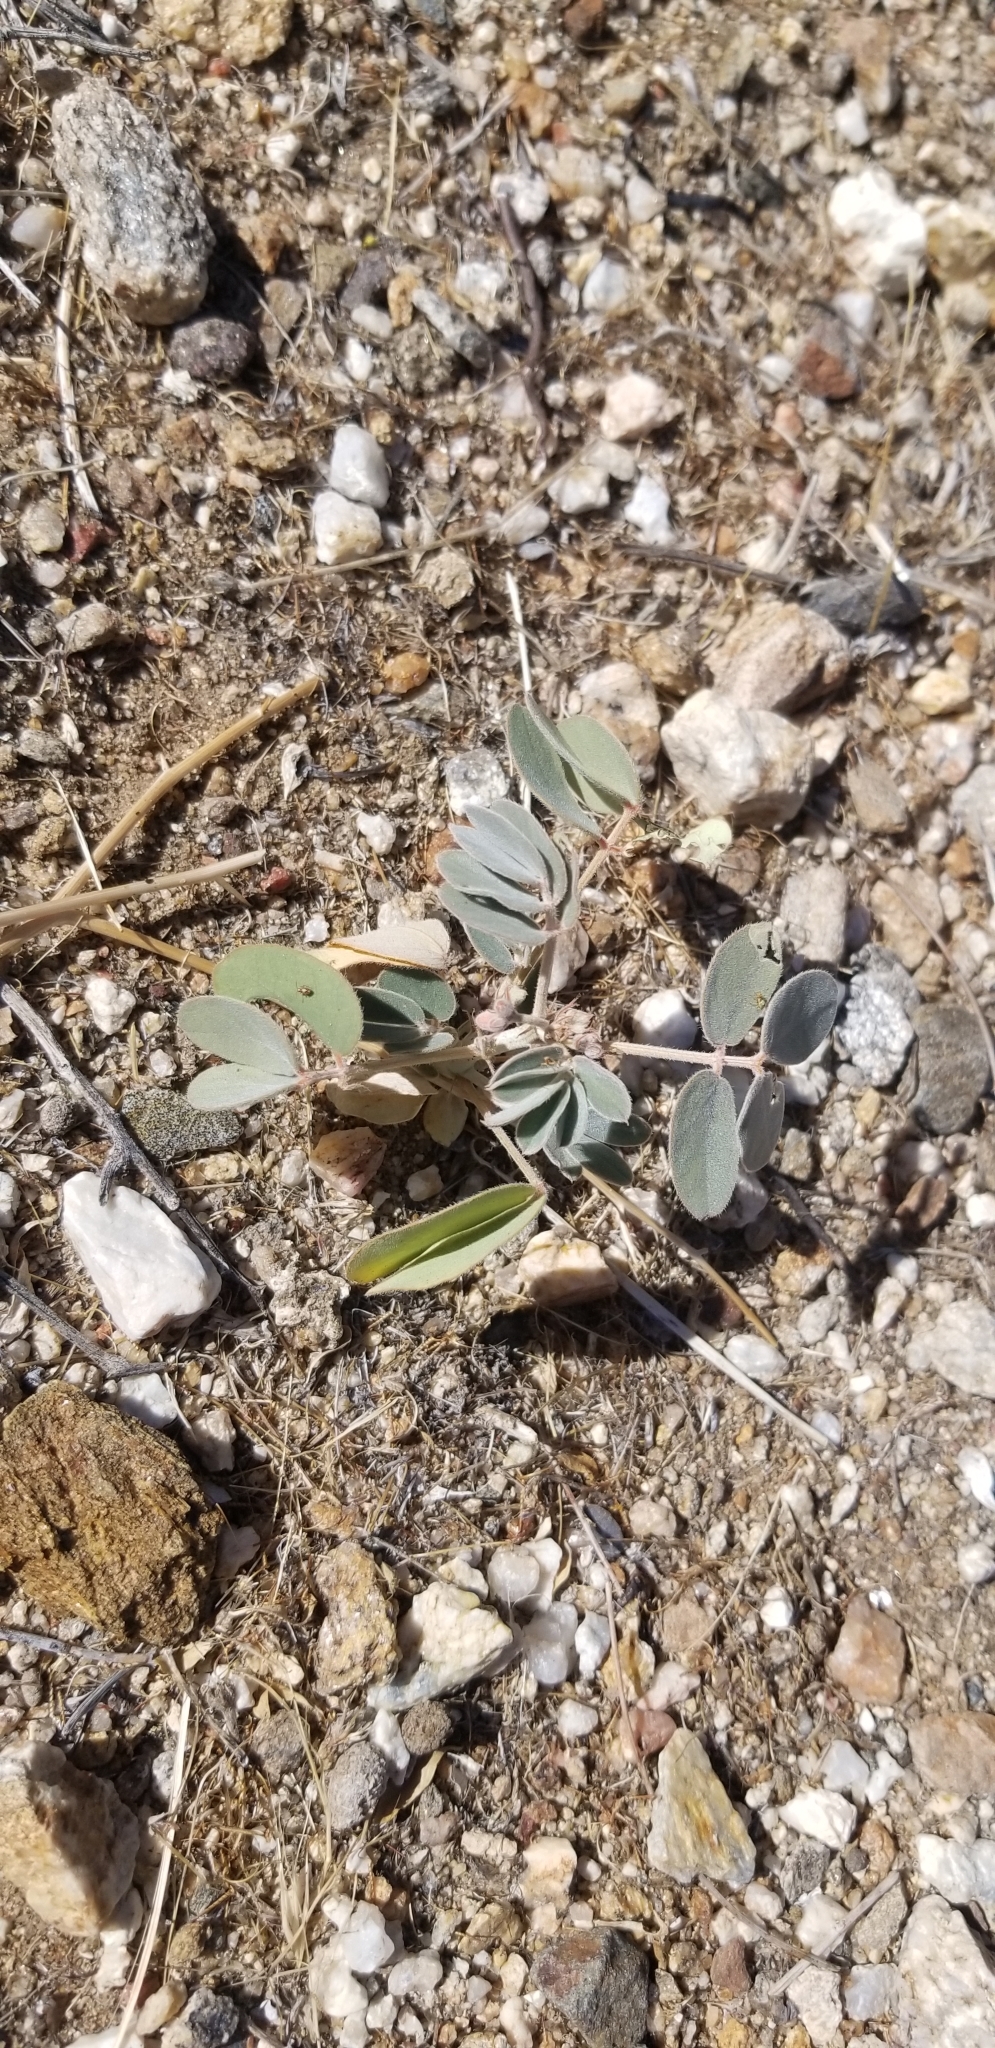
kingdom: Plantae
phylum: Tracheophyta
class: Magnoliopsida
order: Fabales
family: Fabaceae
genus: Senna
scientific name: Senna covesii
